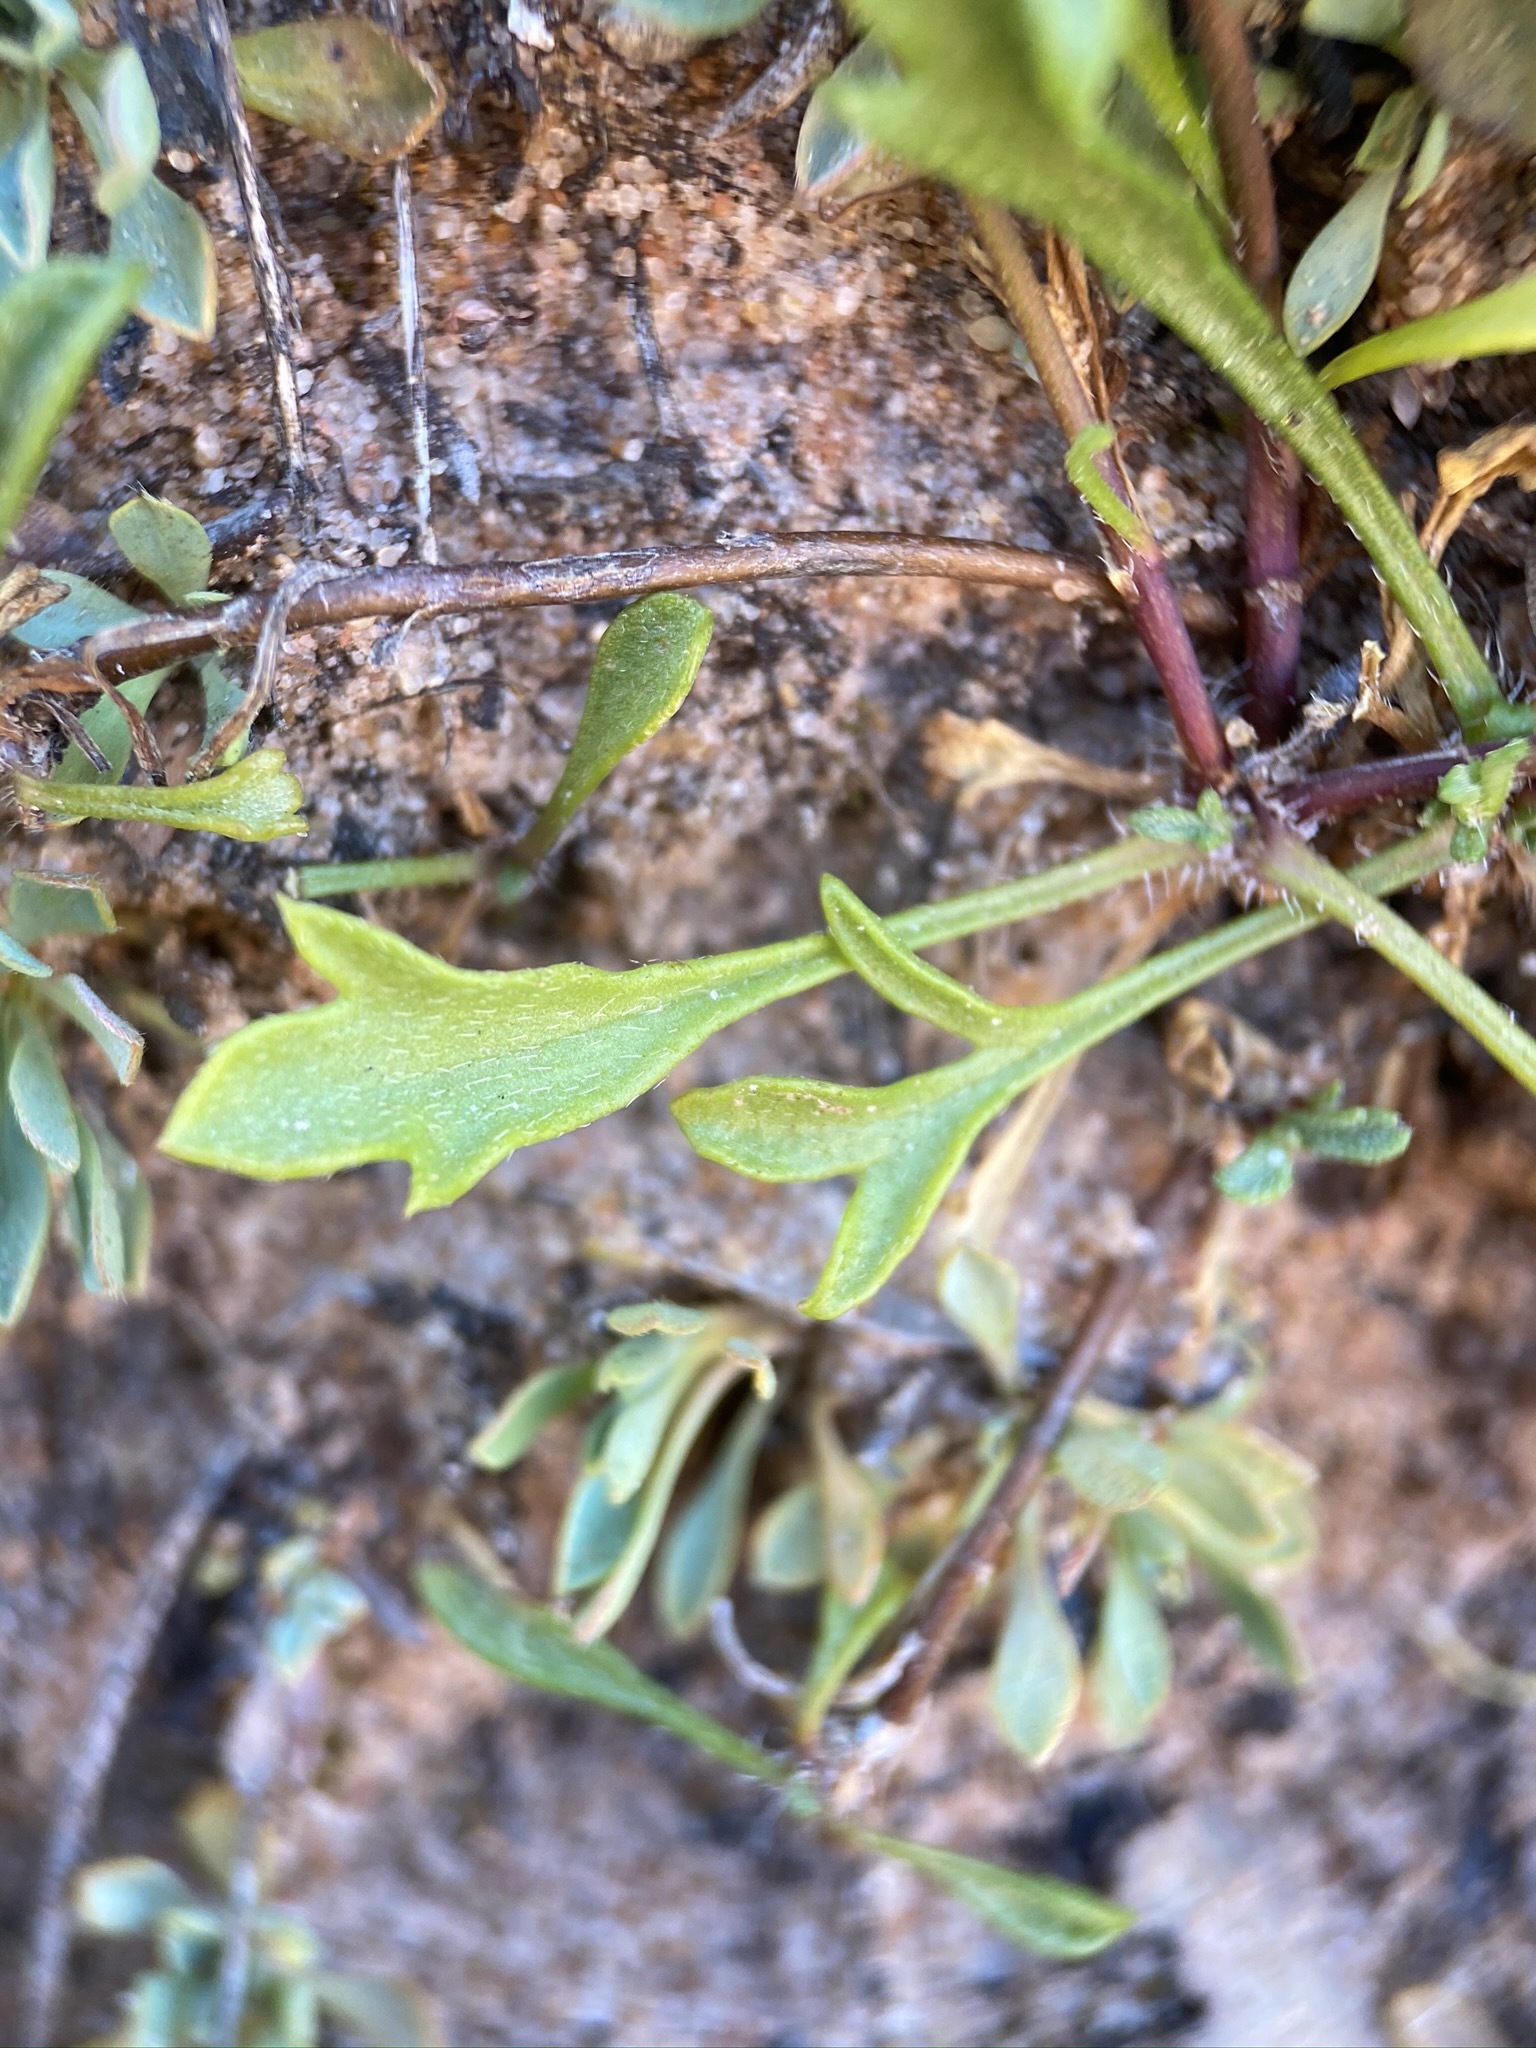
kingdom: Plantae
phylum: Tracheophyta
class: Magnoliopsida
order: Asterales
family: Asteraceae
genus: Erigeron
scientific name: Erigeron sionis
